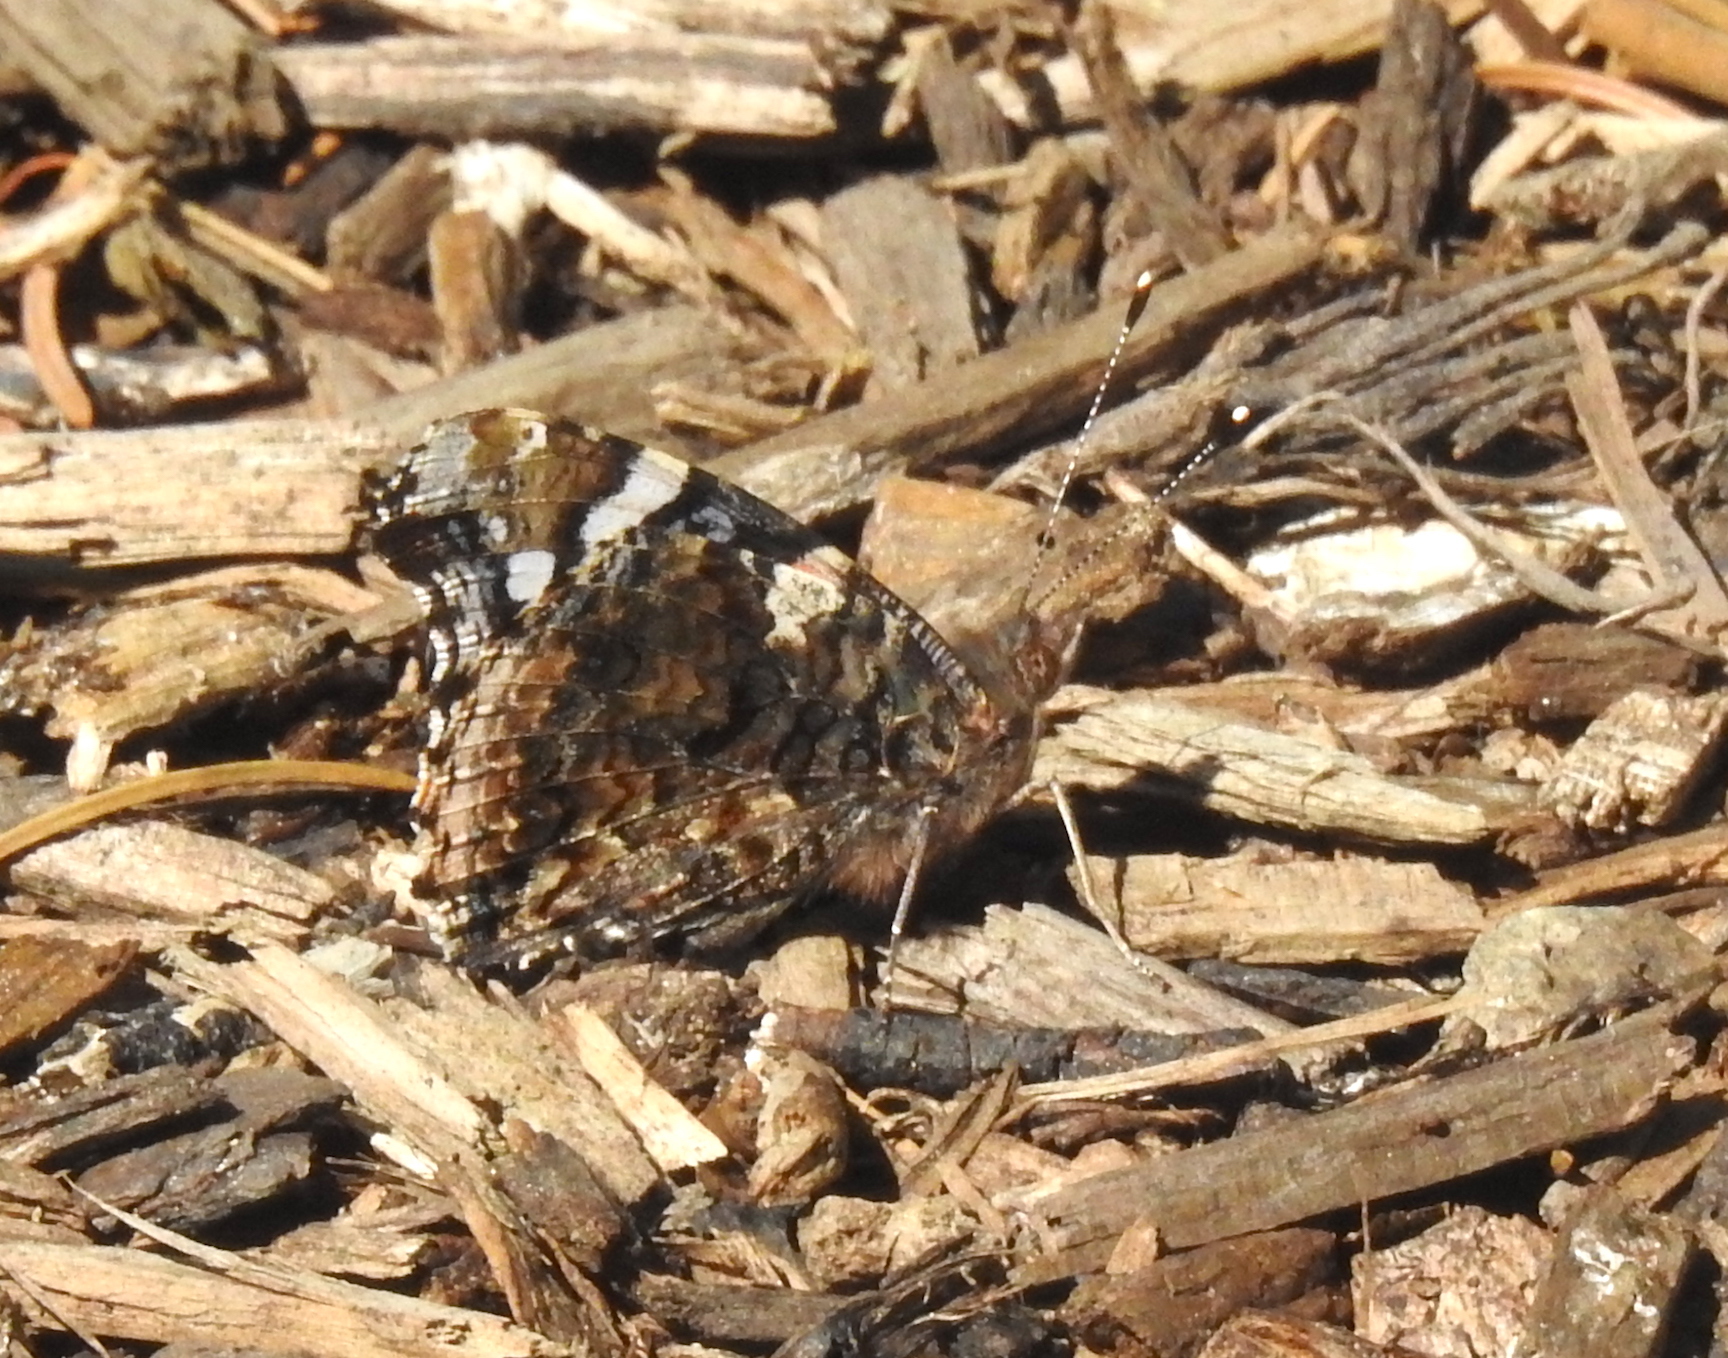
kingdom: Animalia
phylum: Arthropoda
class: Insecta
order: Lepidoptera
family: Nymphalidae
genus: Vanessa
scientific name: Vanessa atalanta
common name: Red admiral
